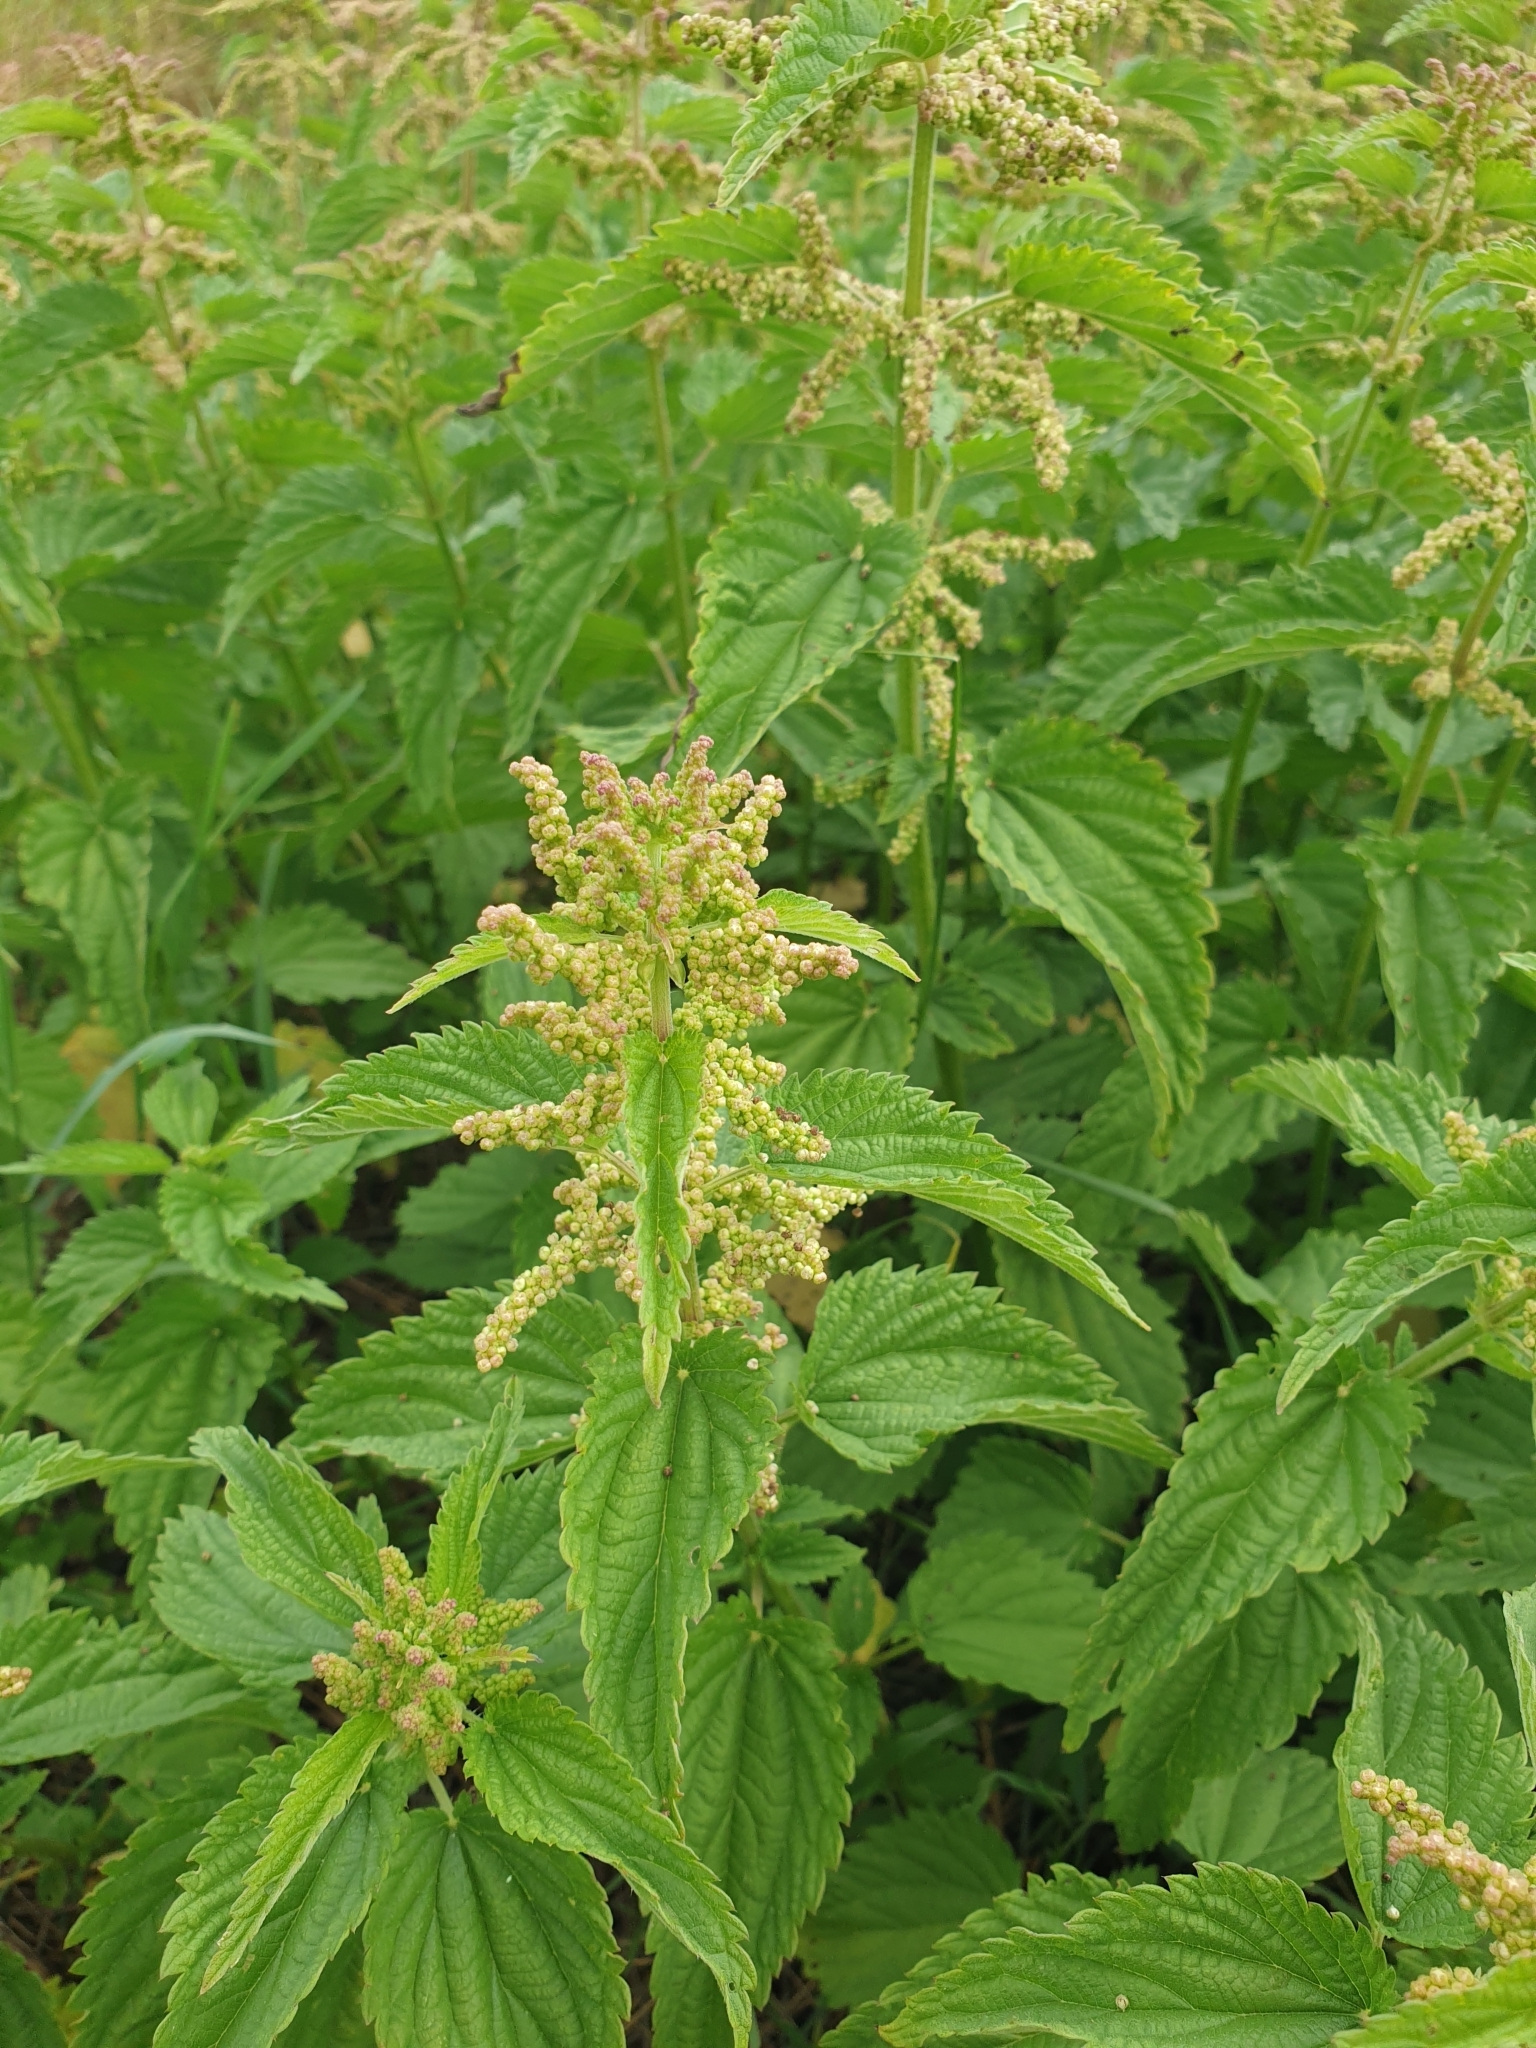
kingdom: Plantae
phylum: Tracheophyta
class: Magnoliopsida
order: Rosales
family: Urticaceae
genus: Urtica
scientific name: Urtica dioica
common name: Common nettle
